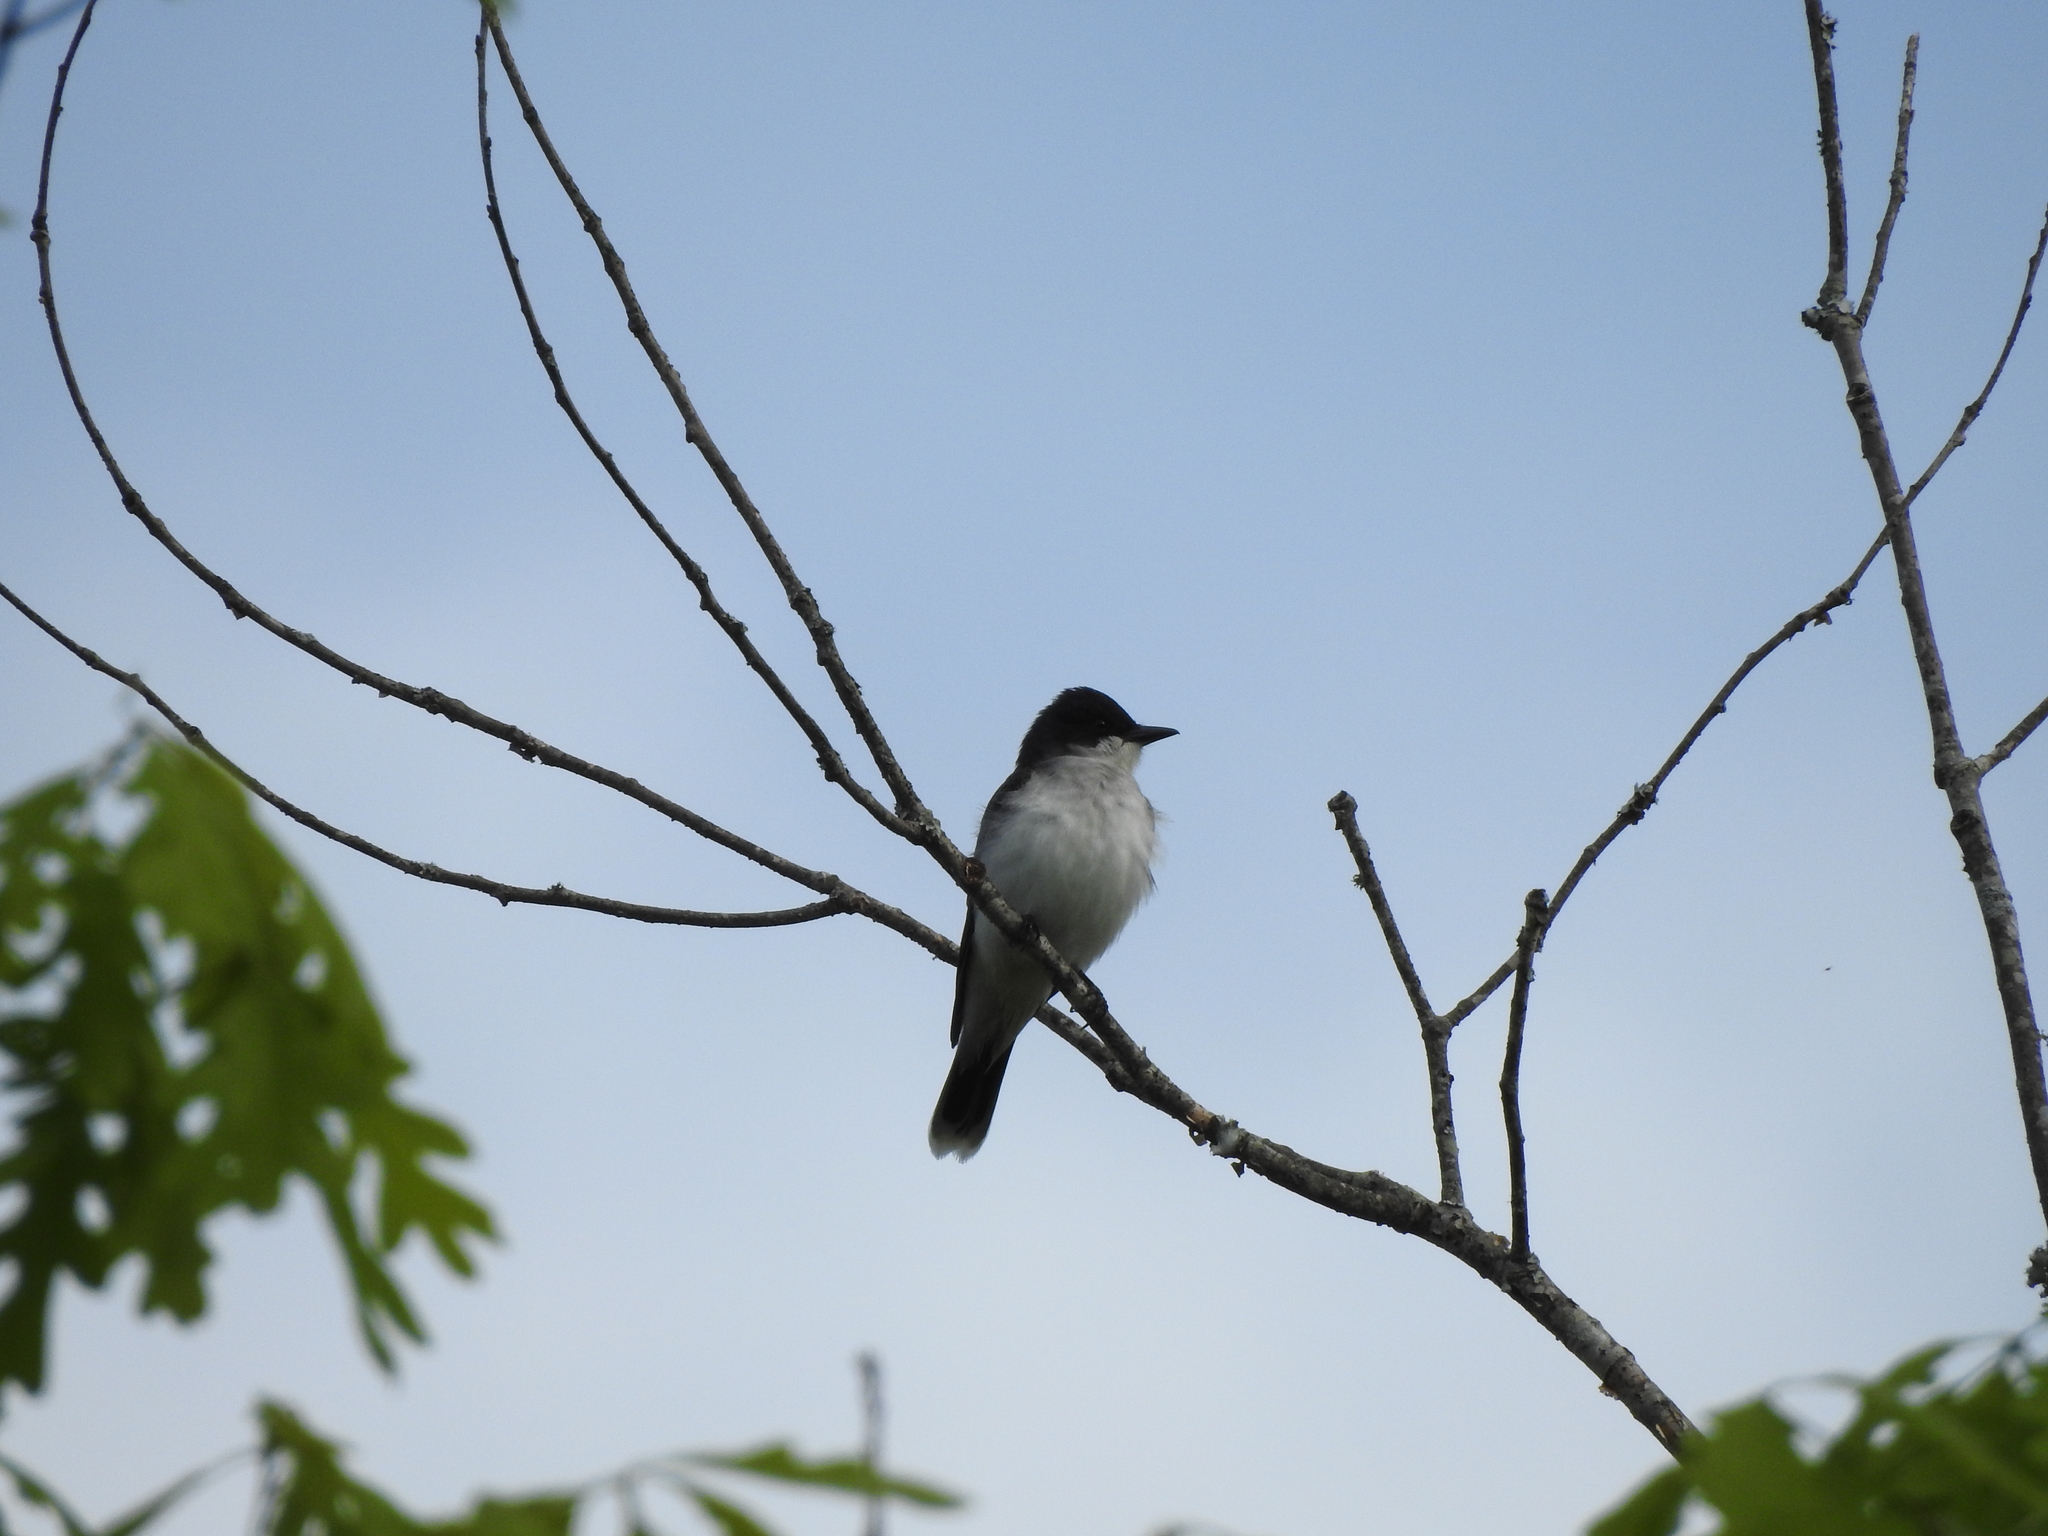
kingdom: Animalia
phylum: Chordata
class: Aves
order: Passeriformes
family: Tyrannidae
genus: Tyrannus
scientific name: Tyrannus tyrannus
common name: Eastern kingbird
